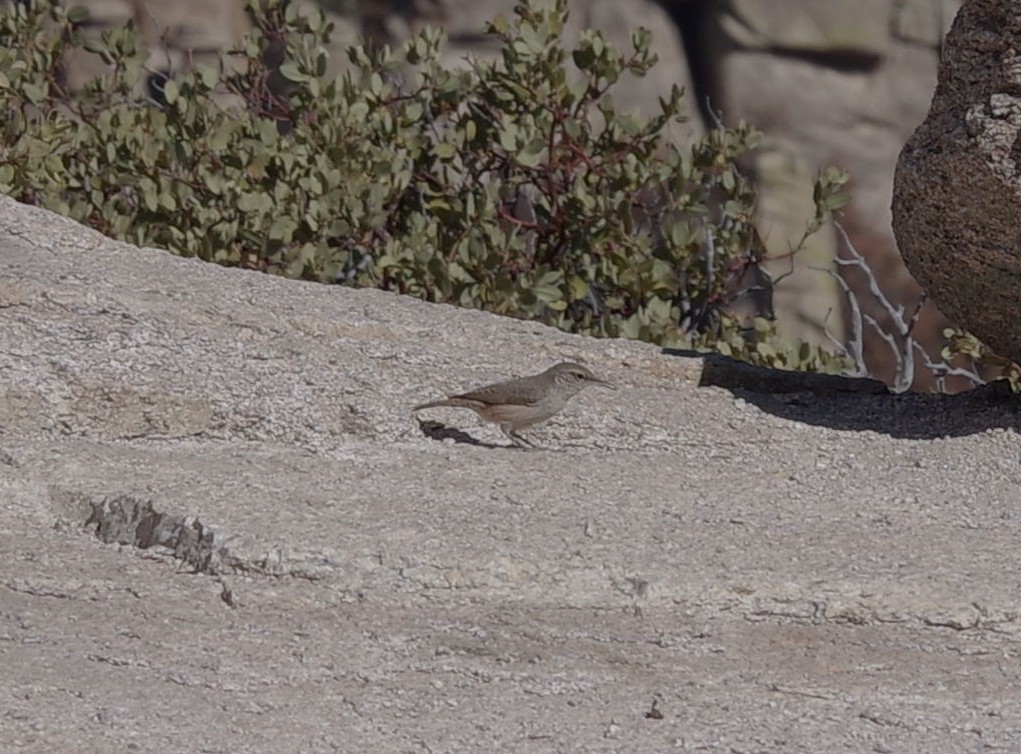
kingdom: Animalia
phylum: Chordata
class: Aves
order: Passeriformes
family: Troglodytidae
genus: Salpinctes
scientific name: Salpinctes obsoletus
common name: Rock wren
